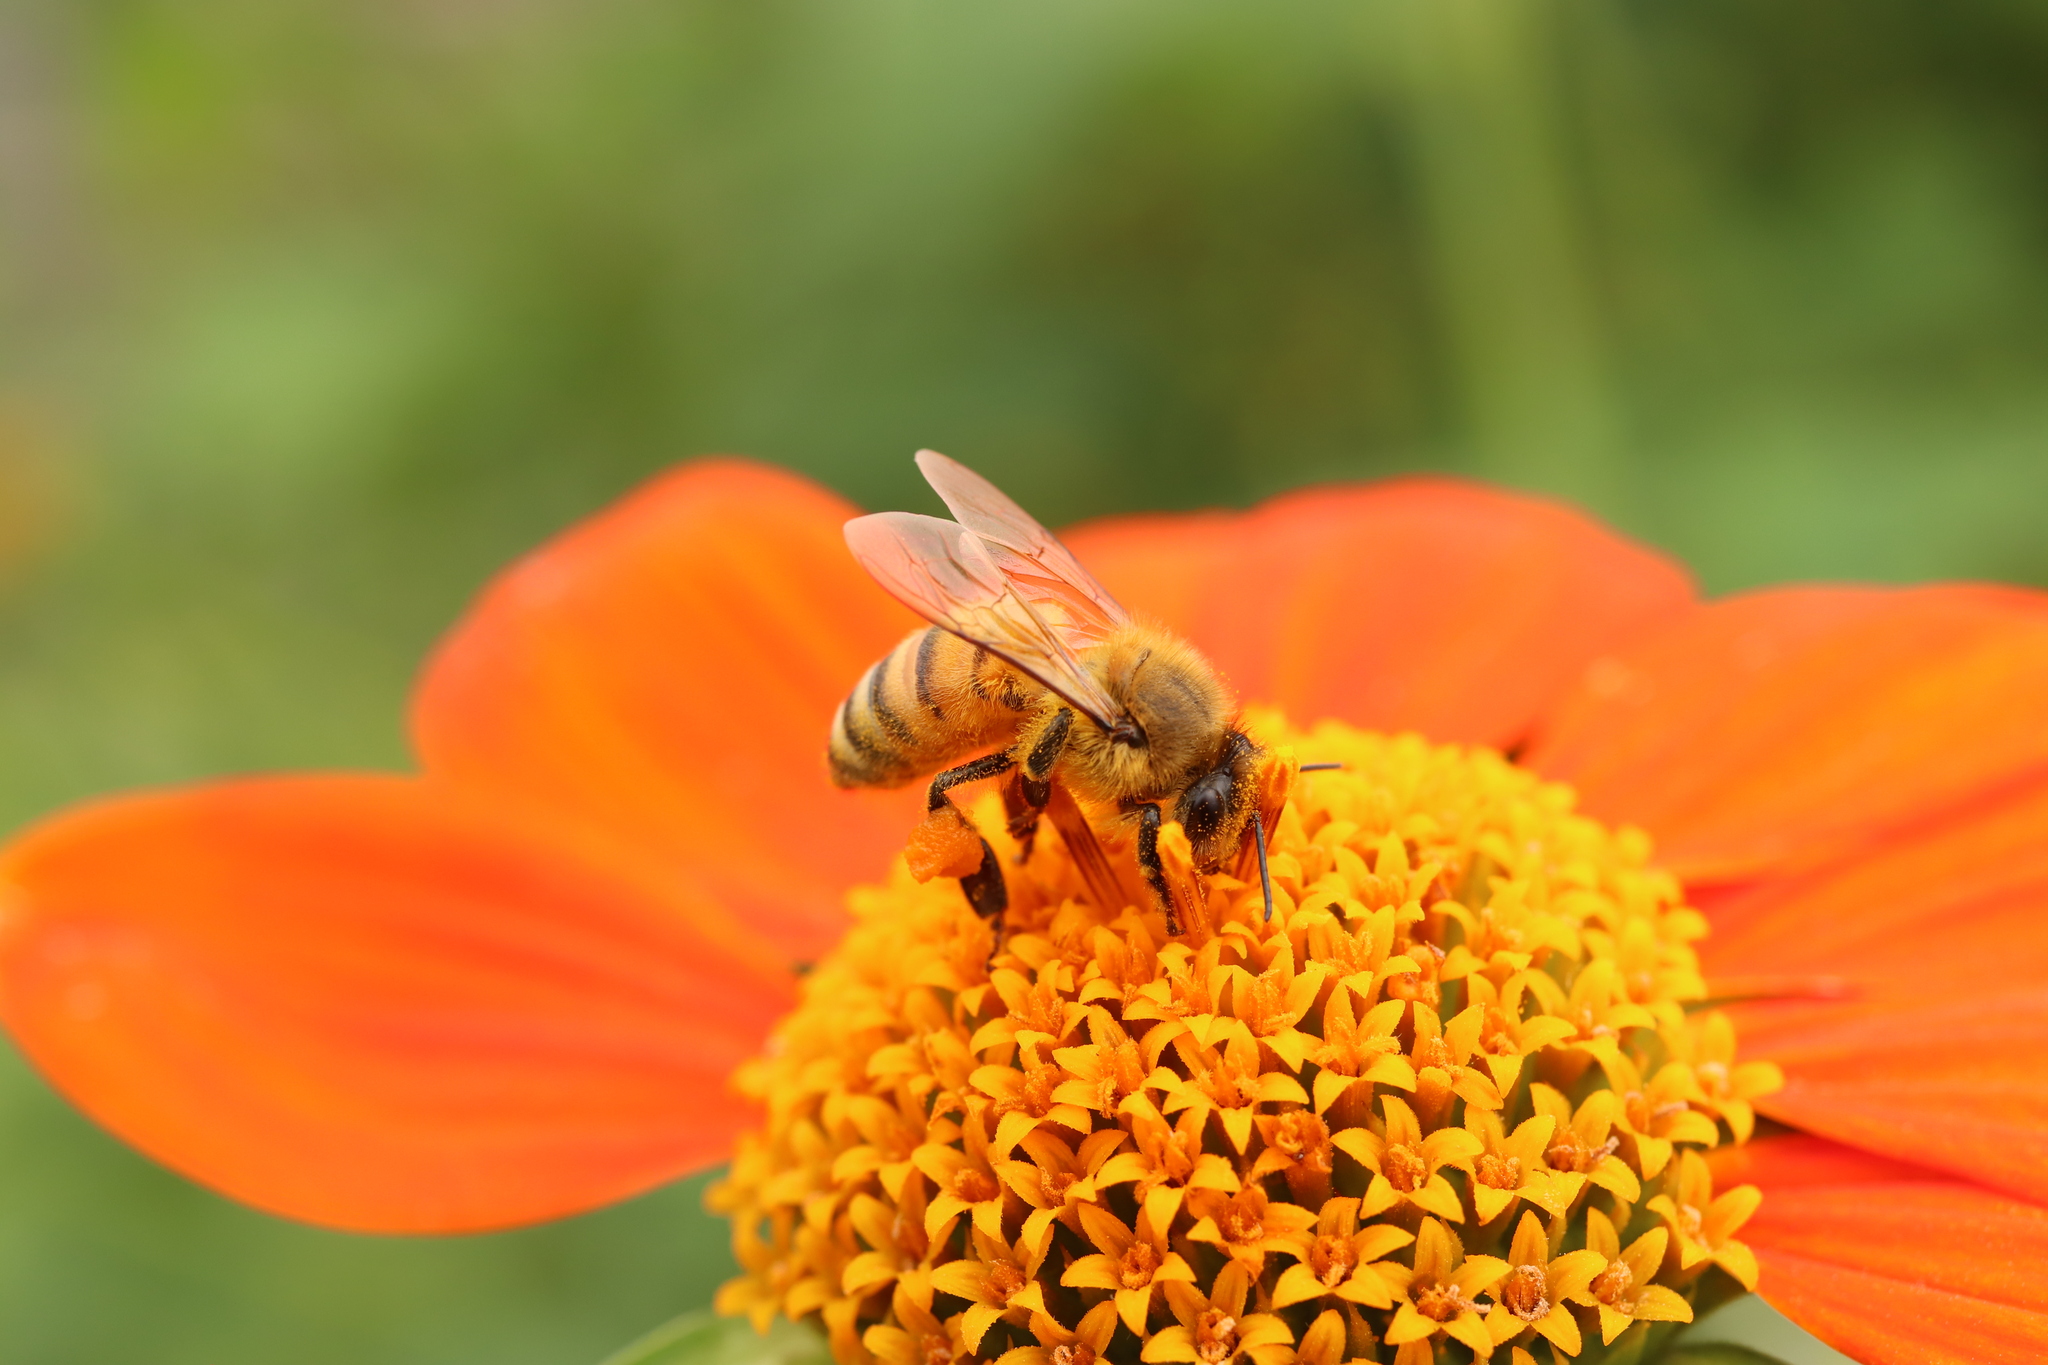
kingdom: Animalia
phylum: Arthropoda
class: Insecta
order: Hymenoptera
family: Apidae
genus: Apis
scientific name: Apis mellifera
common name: Honey bee
